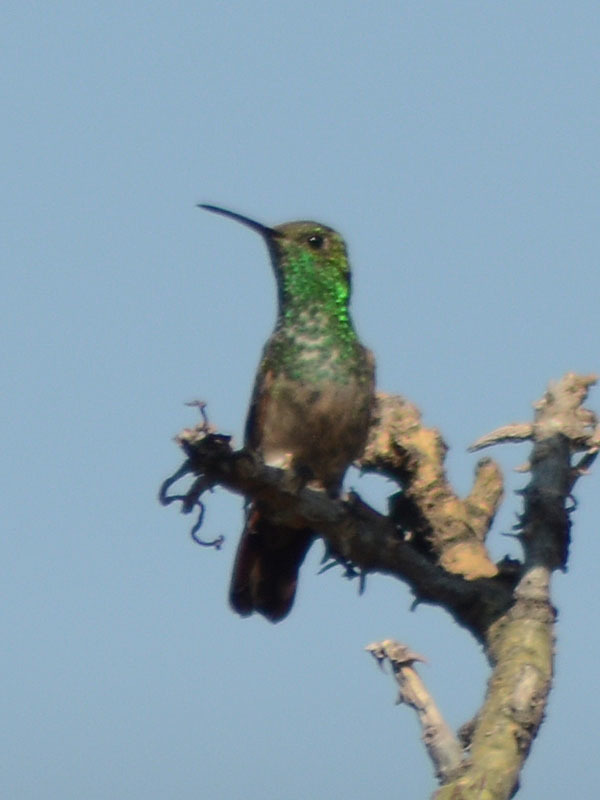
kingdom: Animalia
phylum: Chordata
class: Aves
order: Apodiformes
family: Trochilidae
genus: Saucerottia
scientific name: Saucerottia beryllina
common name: Berylline hummingbird
